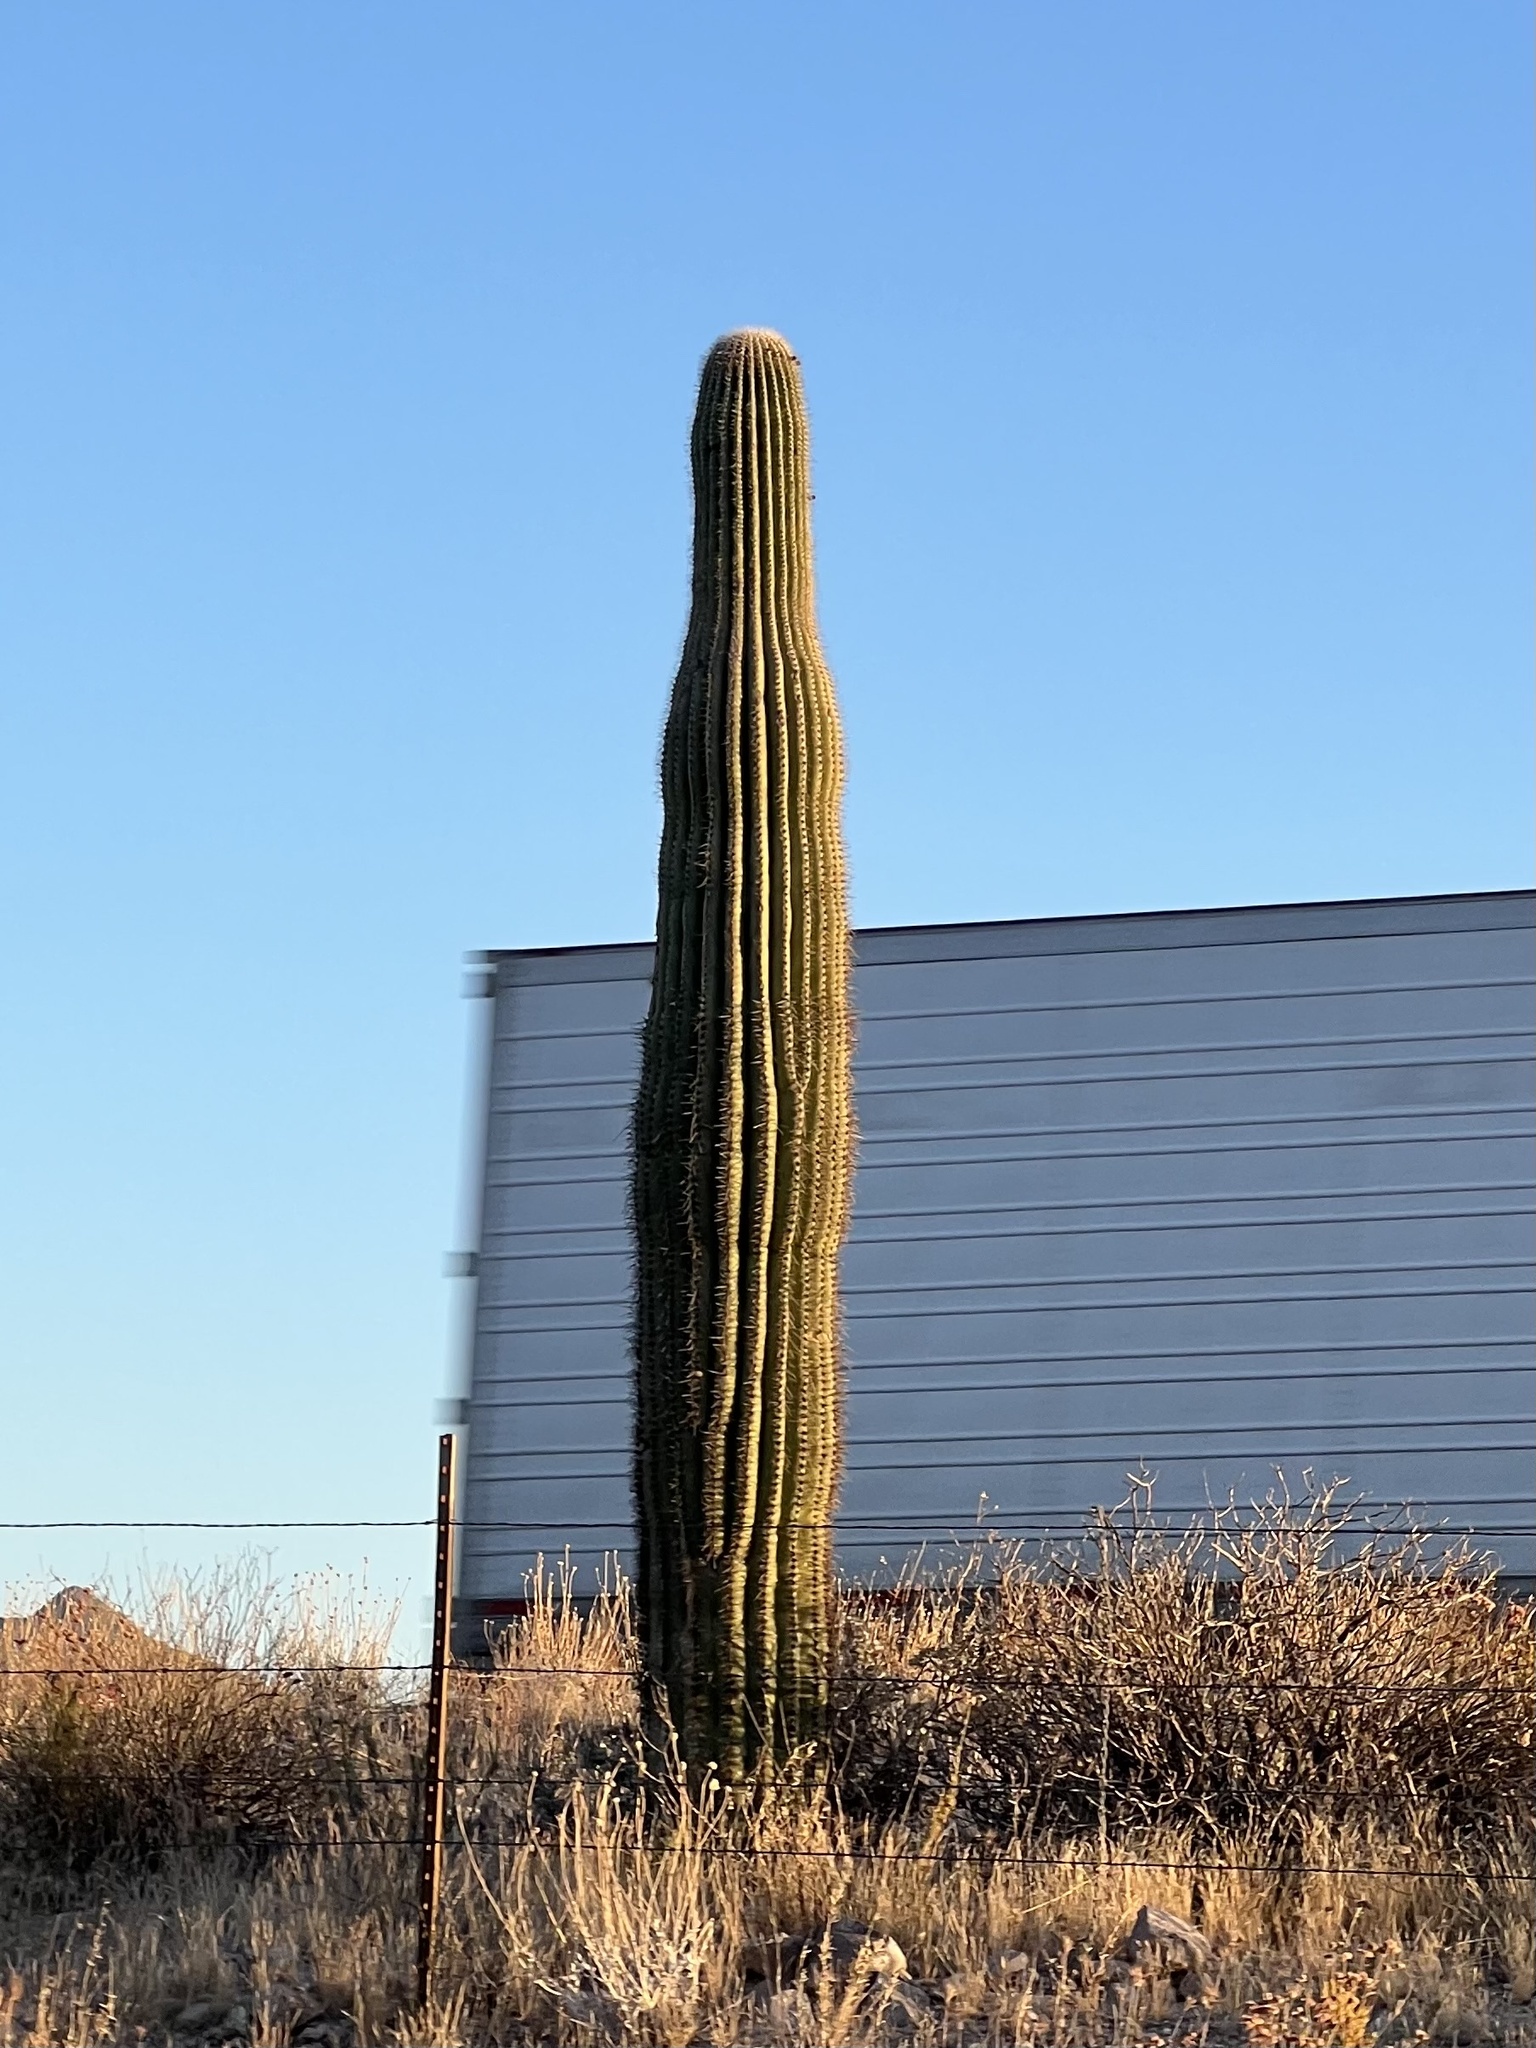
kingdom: Plantae
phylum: Tracheophyta
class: Magnoliopsida
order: Caryophyllales
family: Cactaceae
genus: Carnegiea
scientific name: Carnegiea gigantea
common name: Saguaro
